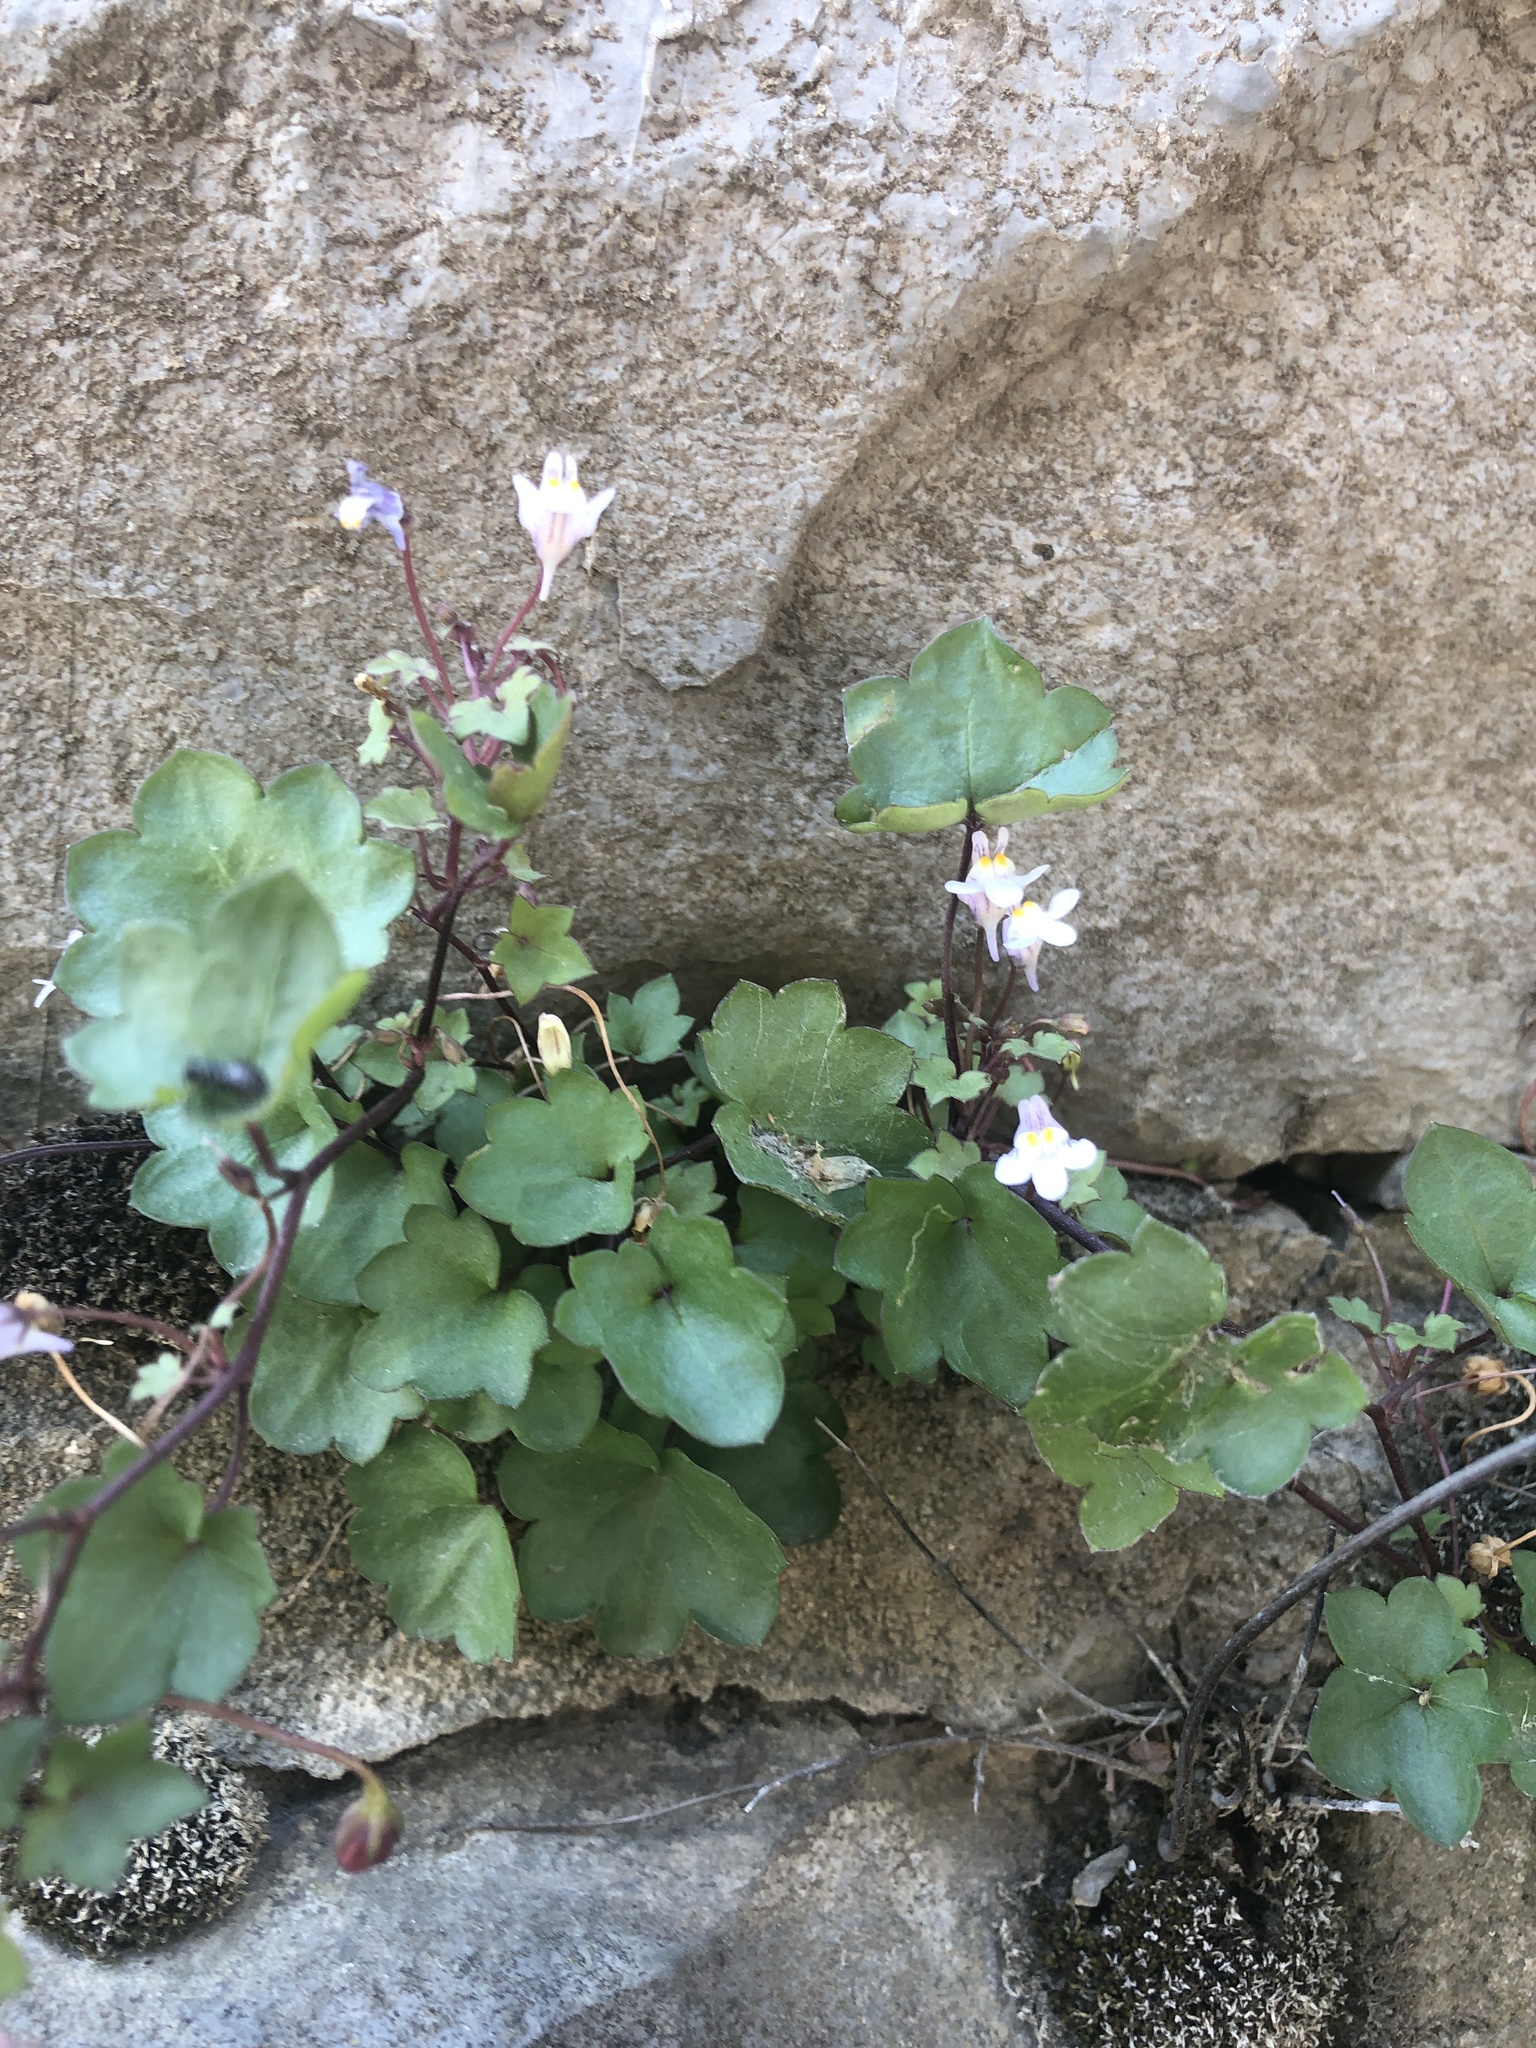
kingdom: Plantae
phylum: Tracheophyta
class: Magnoliopsida
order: Lamiales
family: Plantaginaceae
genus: Cymbalaria
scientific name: Cymbalaria muralis
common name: Ivy-leaved toadflax
